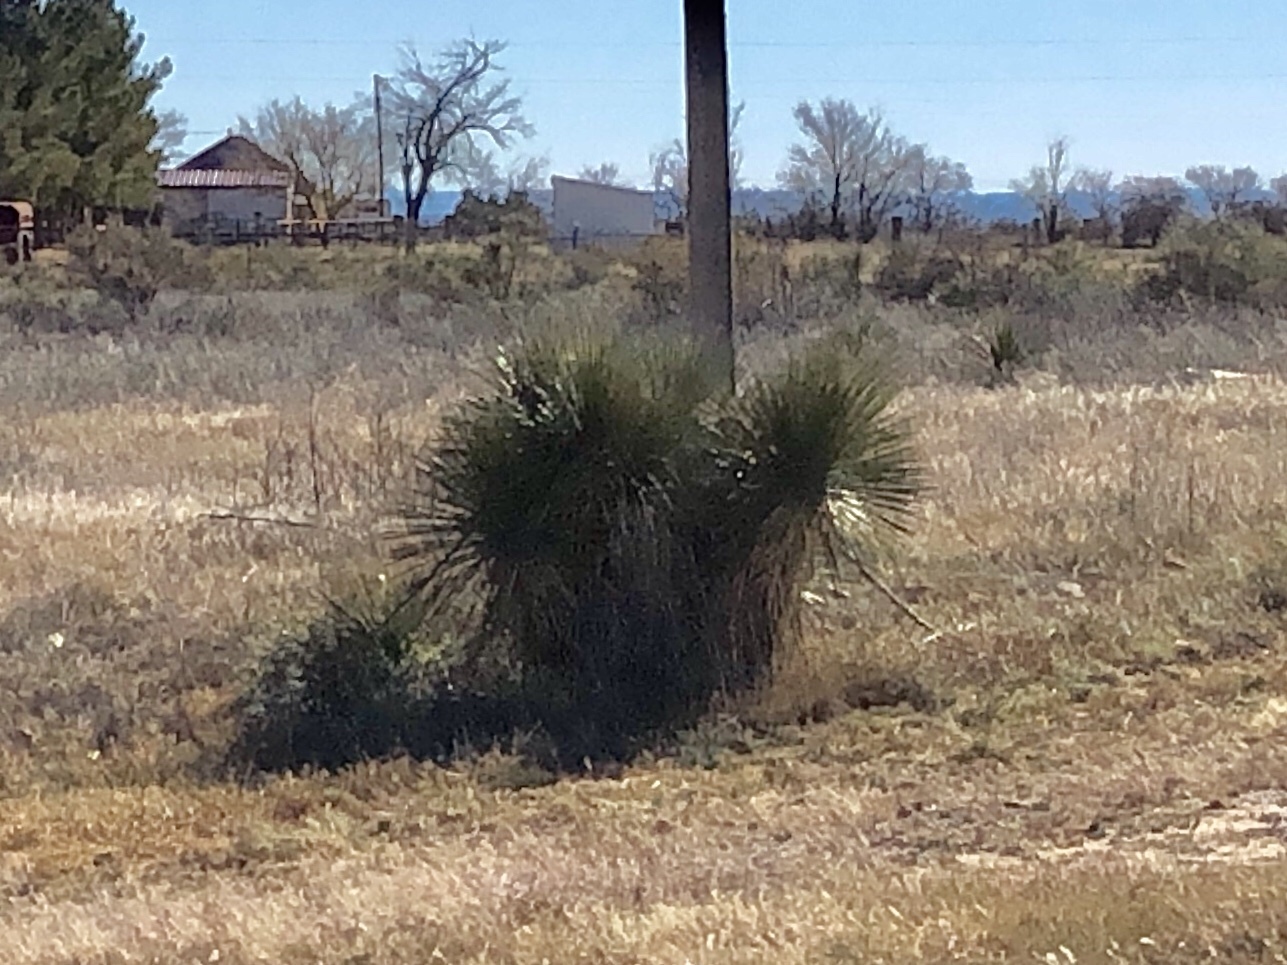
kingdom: Plantae
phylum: Tracheophyta
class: Liliopsida
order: Asparagales
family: Asparagaceae
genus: Yucca
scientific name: Yucca elata
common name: Palmella
